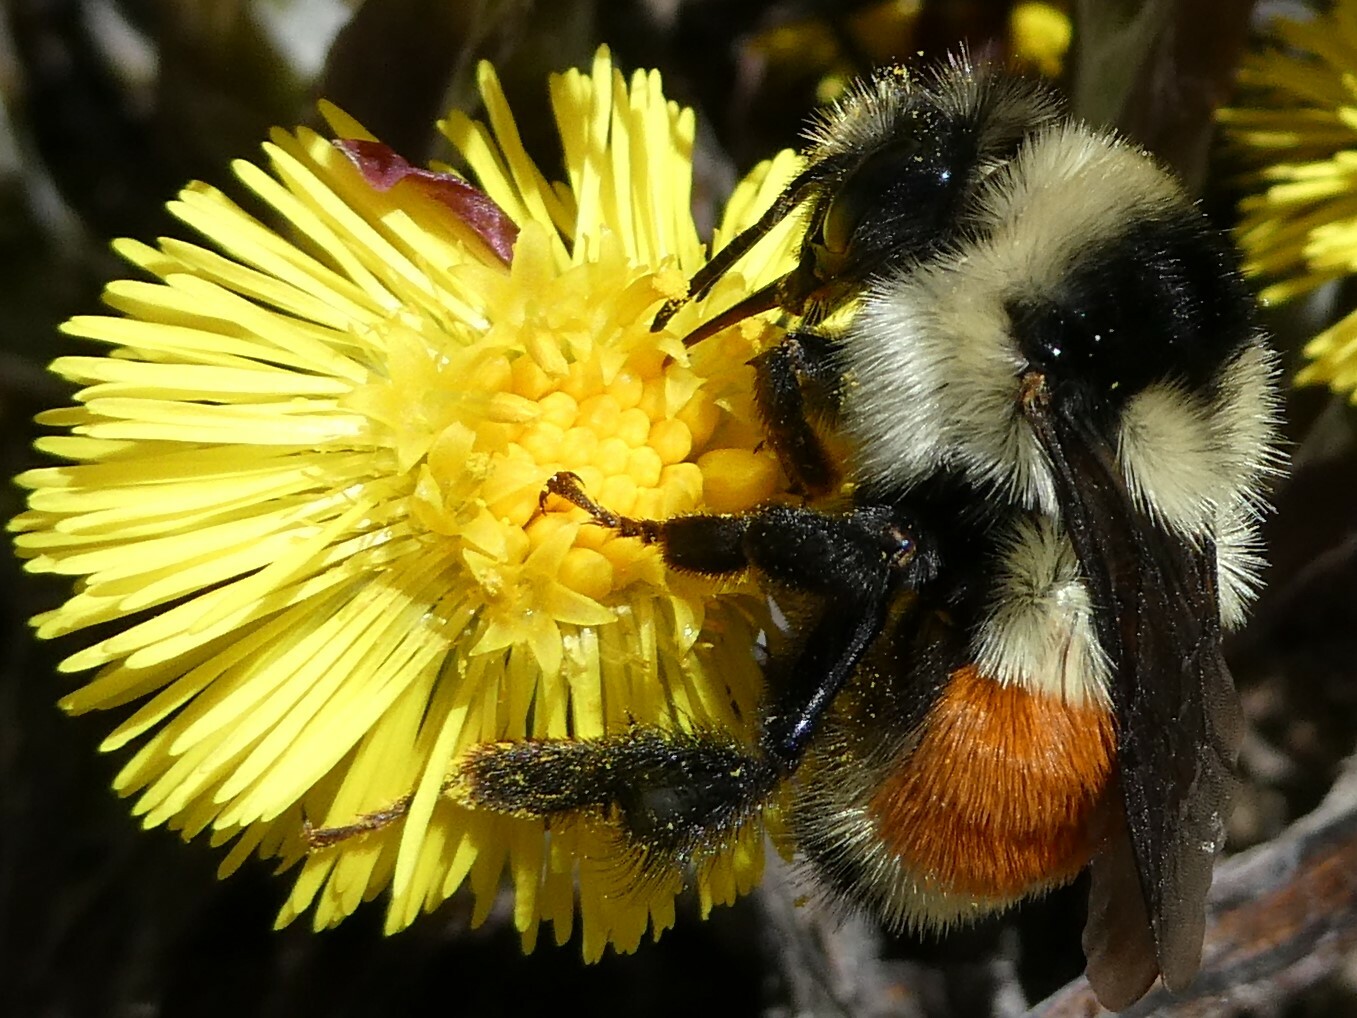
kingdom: Animalia
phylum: Arthropoda
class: Insecta
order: Hymenoptera
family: Apidae
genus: Bombus
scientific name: Bombus ternarius
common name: Tri-colored bumble bee
